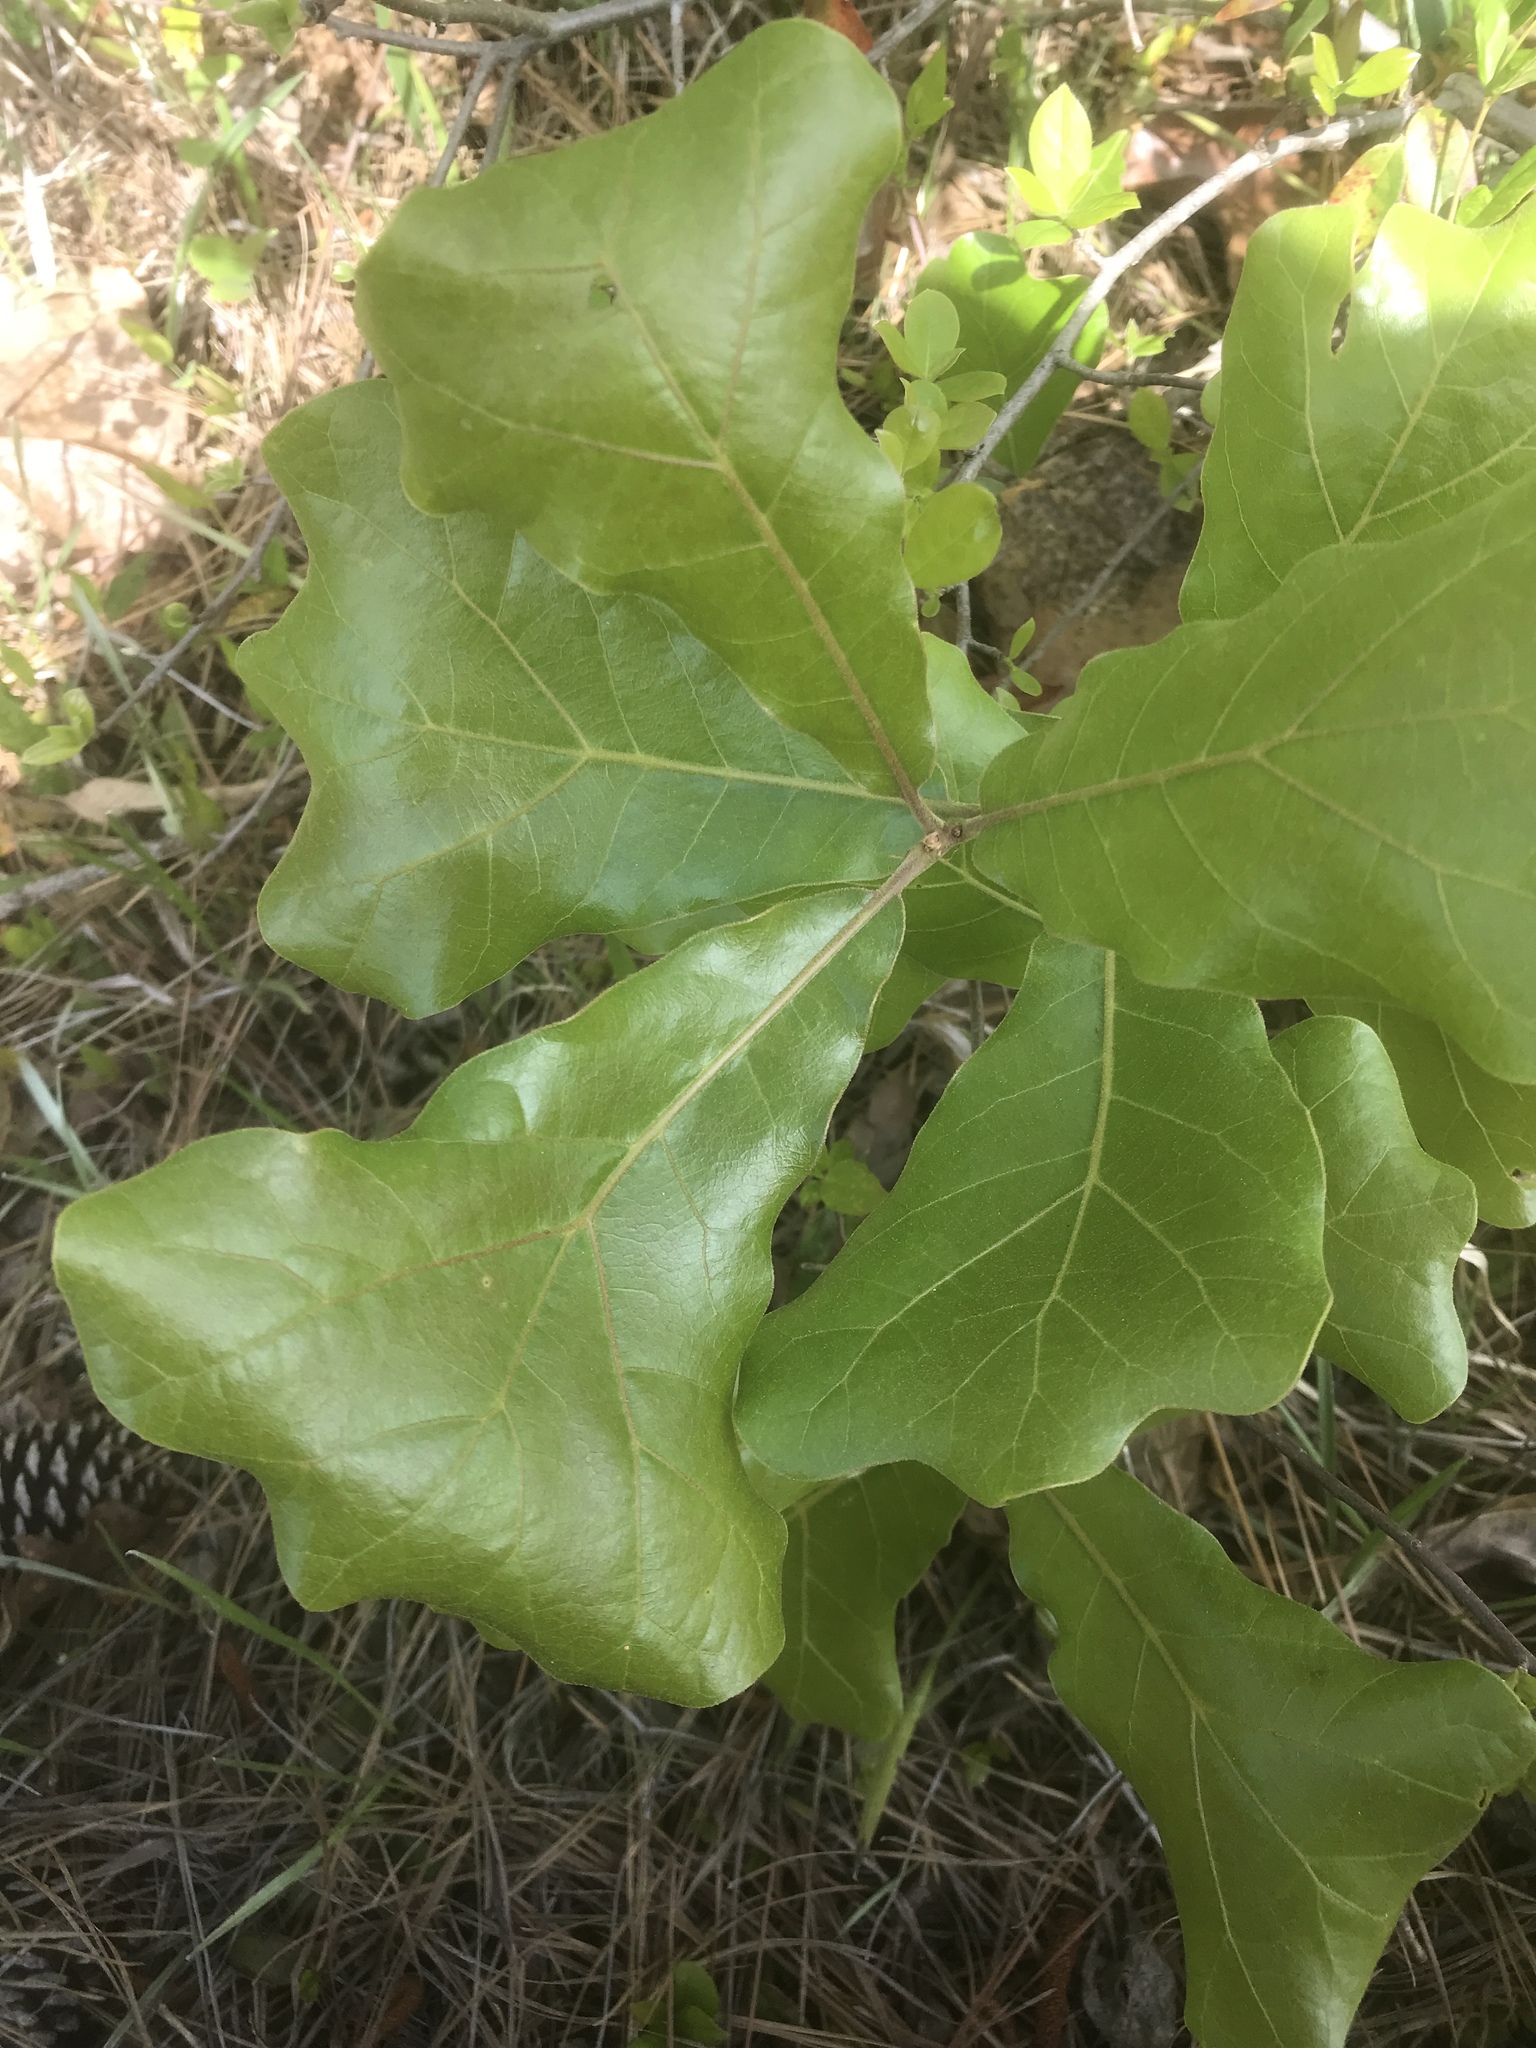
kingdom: Plantae
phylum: Tracheophyta
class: Magnoliopsida
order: Fagales
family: Fagaceae
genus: Quercus
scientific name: Quercus marilandica
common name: Blackjack oak
